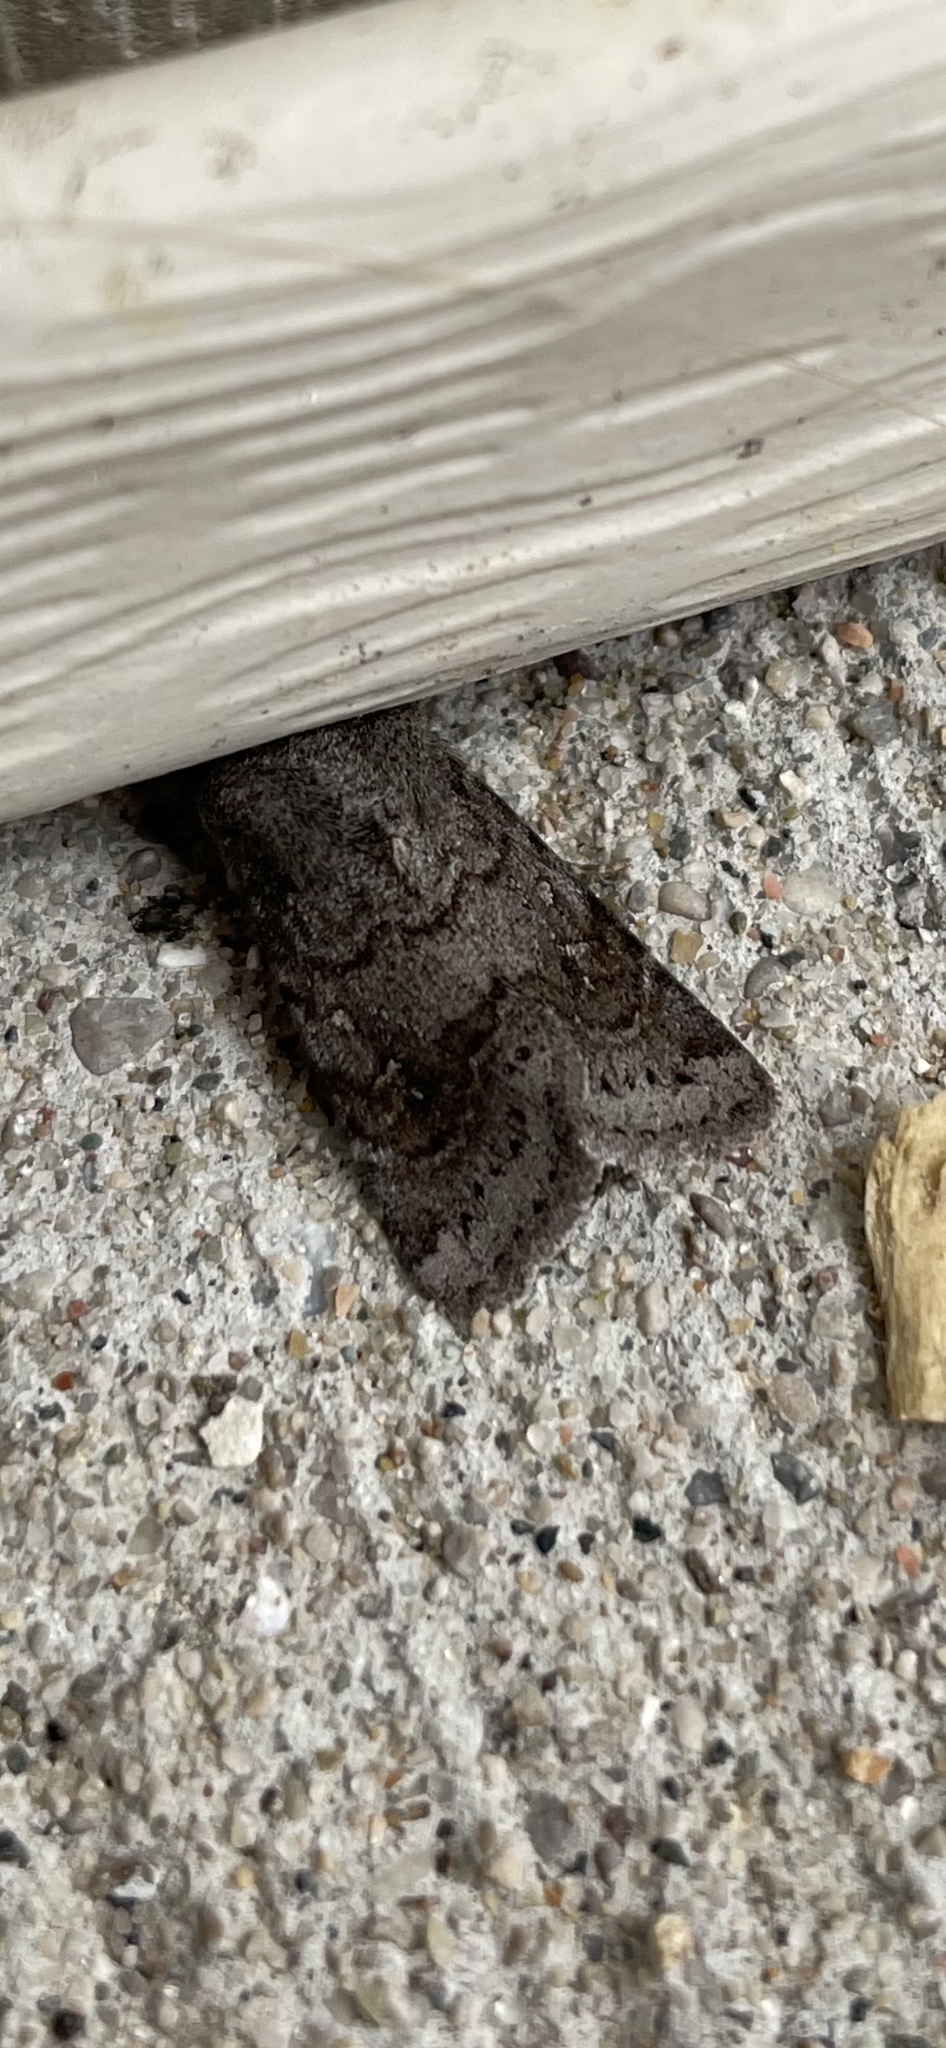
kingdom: Animalia
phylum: Arthropoda
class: Insecta
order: Lepidoptera
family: Noctuidae
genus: Ulolonche
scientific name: Ulolonche modesta
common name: Modest quaker
